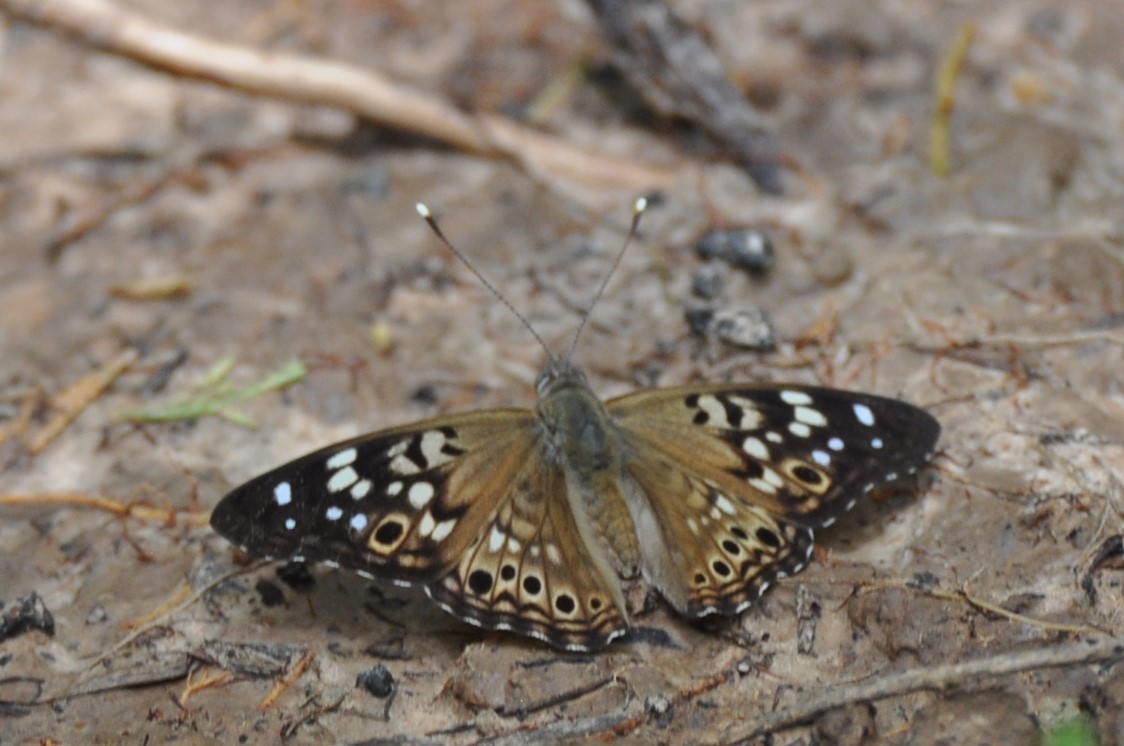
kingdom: Animalia
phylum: Arthropoda
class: Insecta
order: Lepidoptera
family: Nymphalidae
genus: Asterocampa
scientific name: Asterocampa celtis
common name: Hackberry emperor
